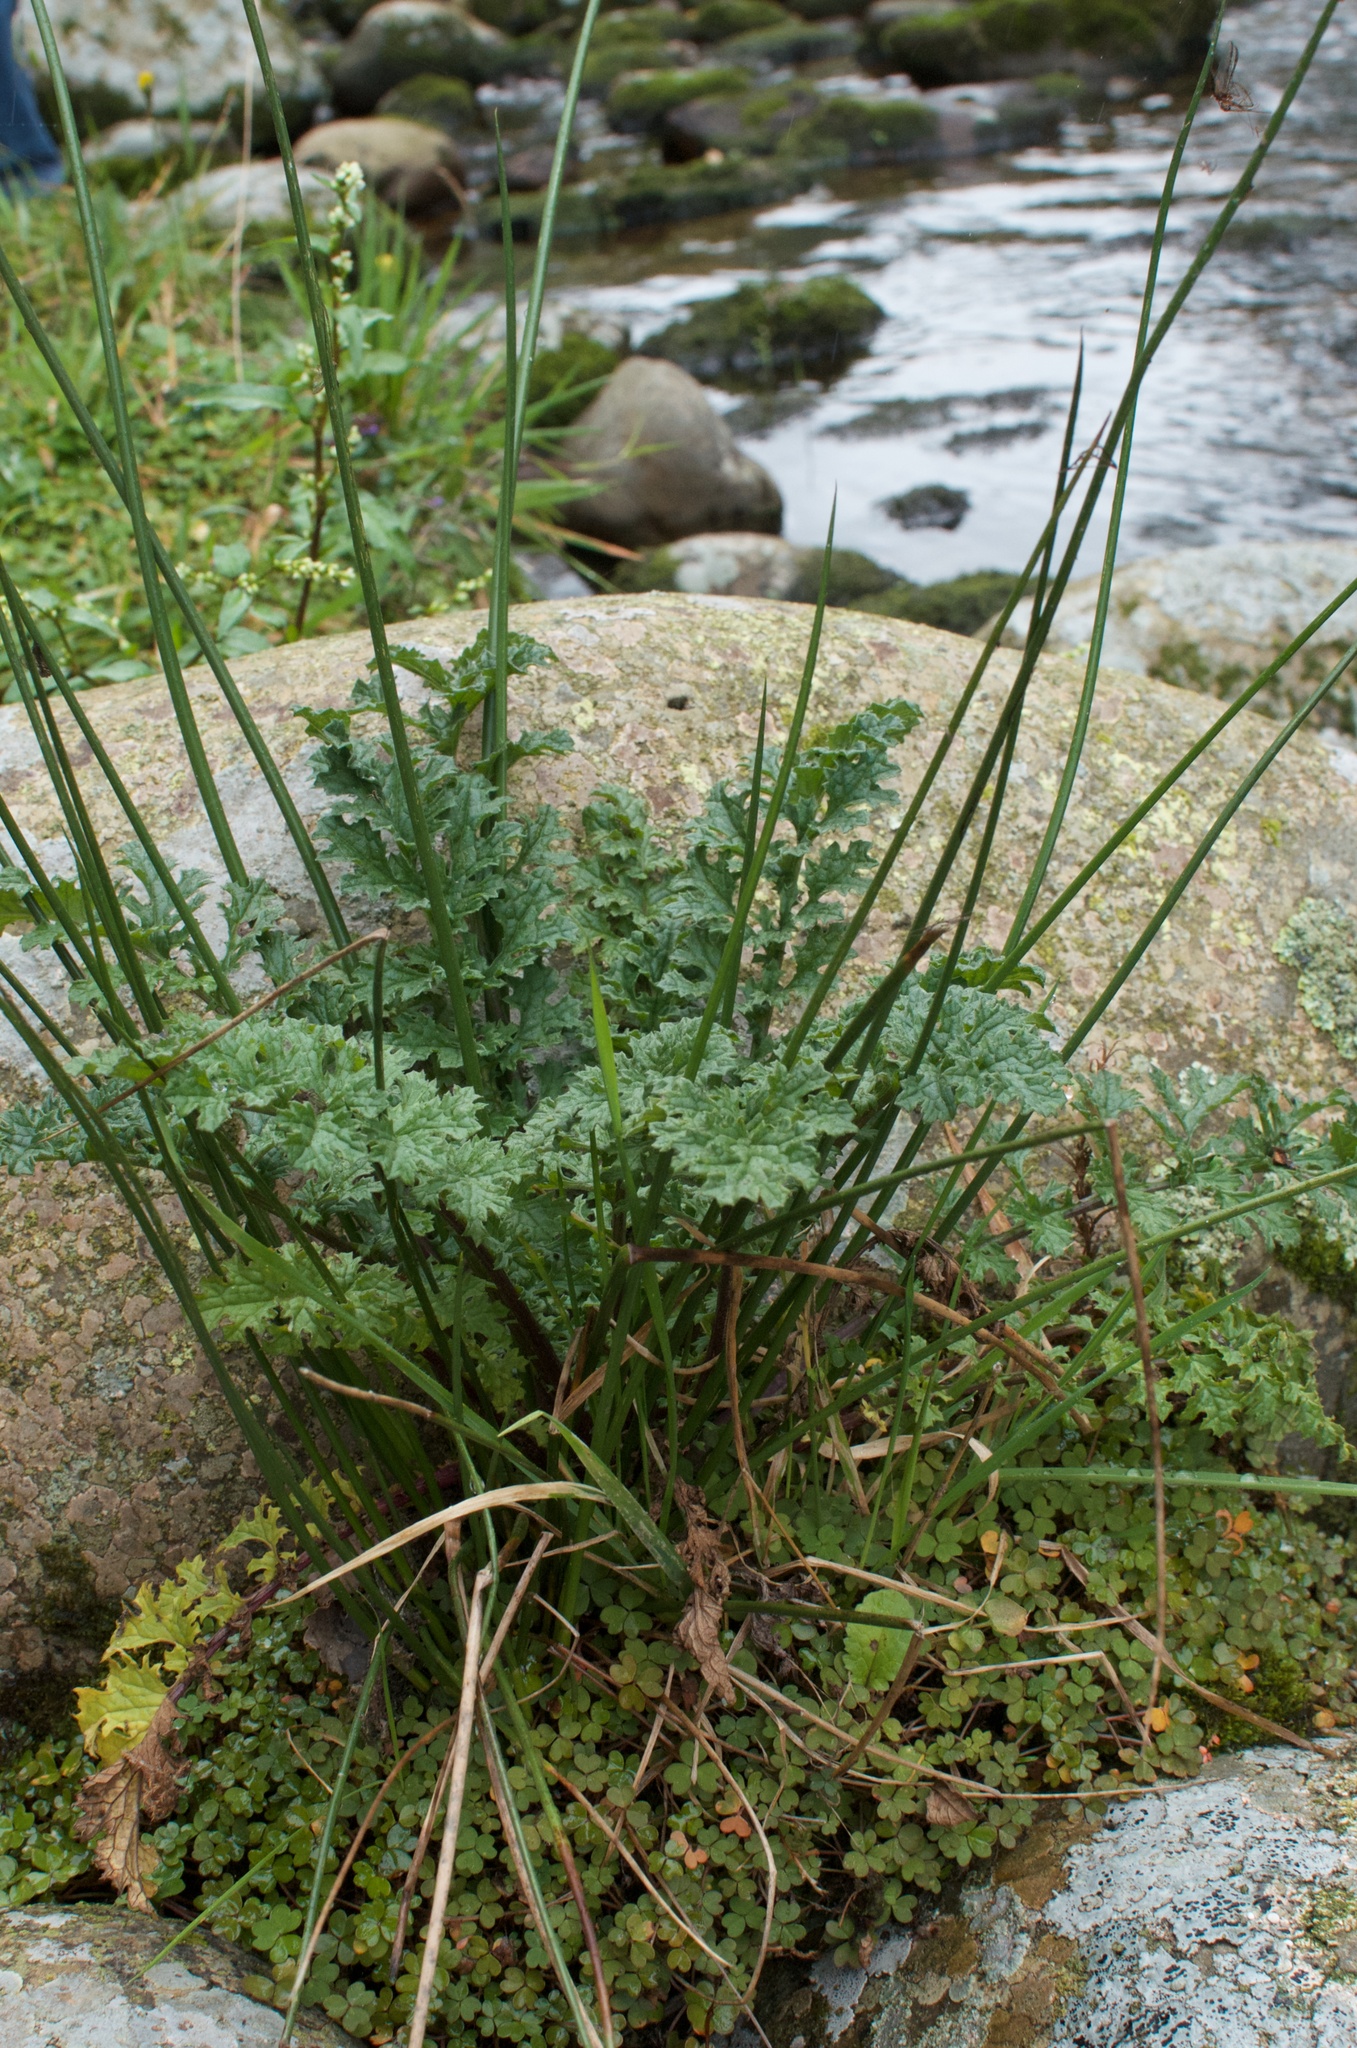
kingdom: Plantae
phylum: Tracheophyta
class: Magnoliopsida
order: Asterales
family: Asteraceae
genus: Jacobaea
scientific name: Jacobaea vulgaris
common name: Stinking willie
